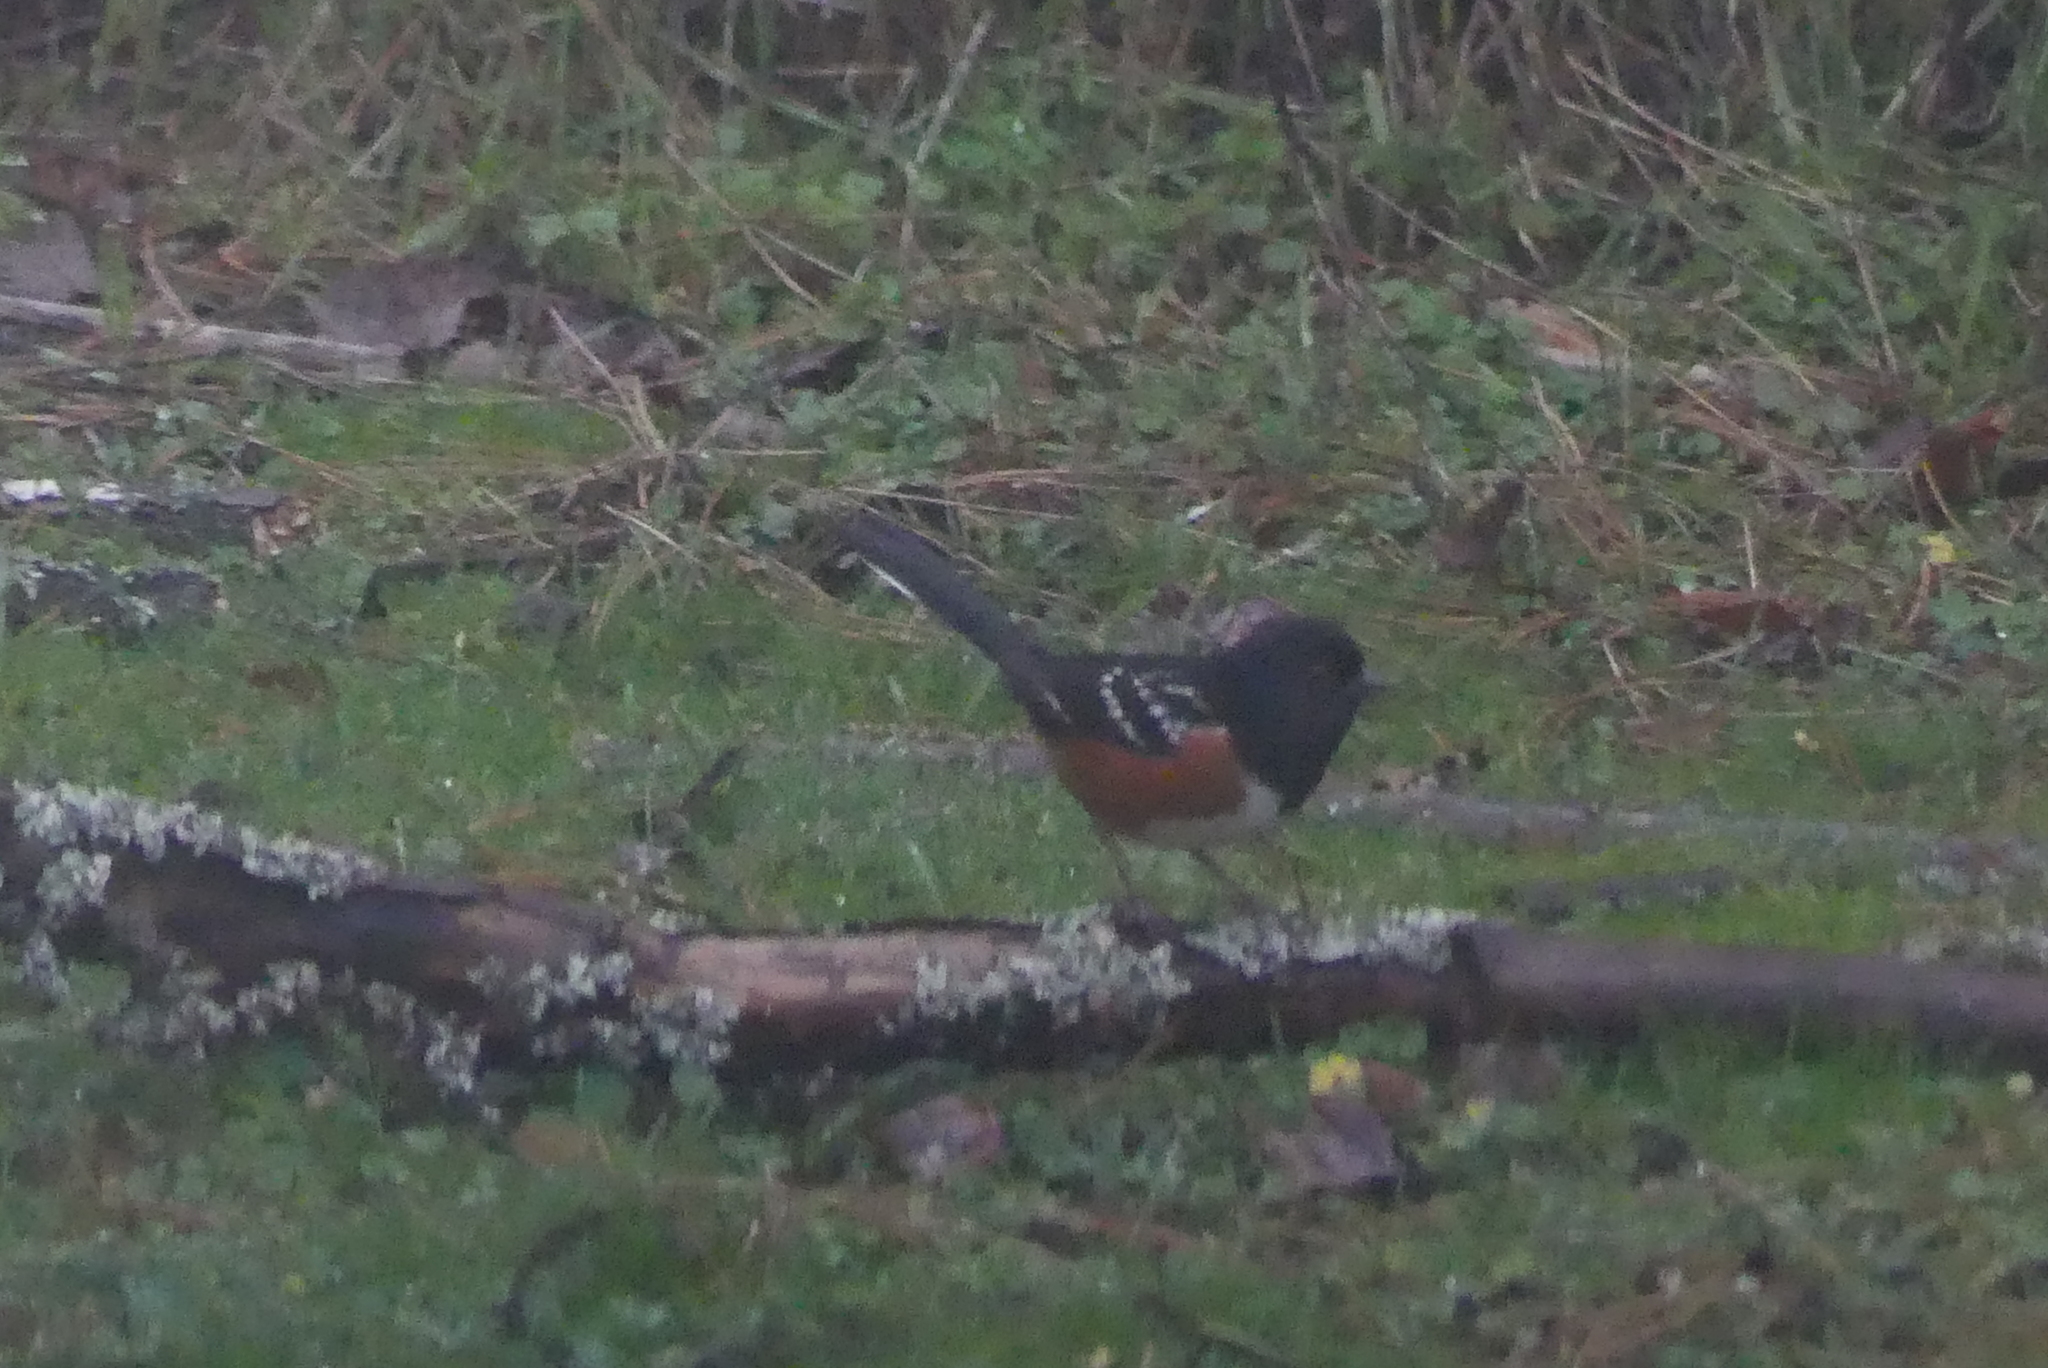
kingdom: Animalia
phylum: Chordata
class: Aves
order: Passeriformes
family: Passerellidae
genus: Pipilo
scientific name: Pipilo maculatus
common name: Spotted towhee
